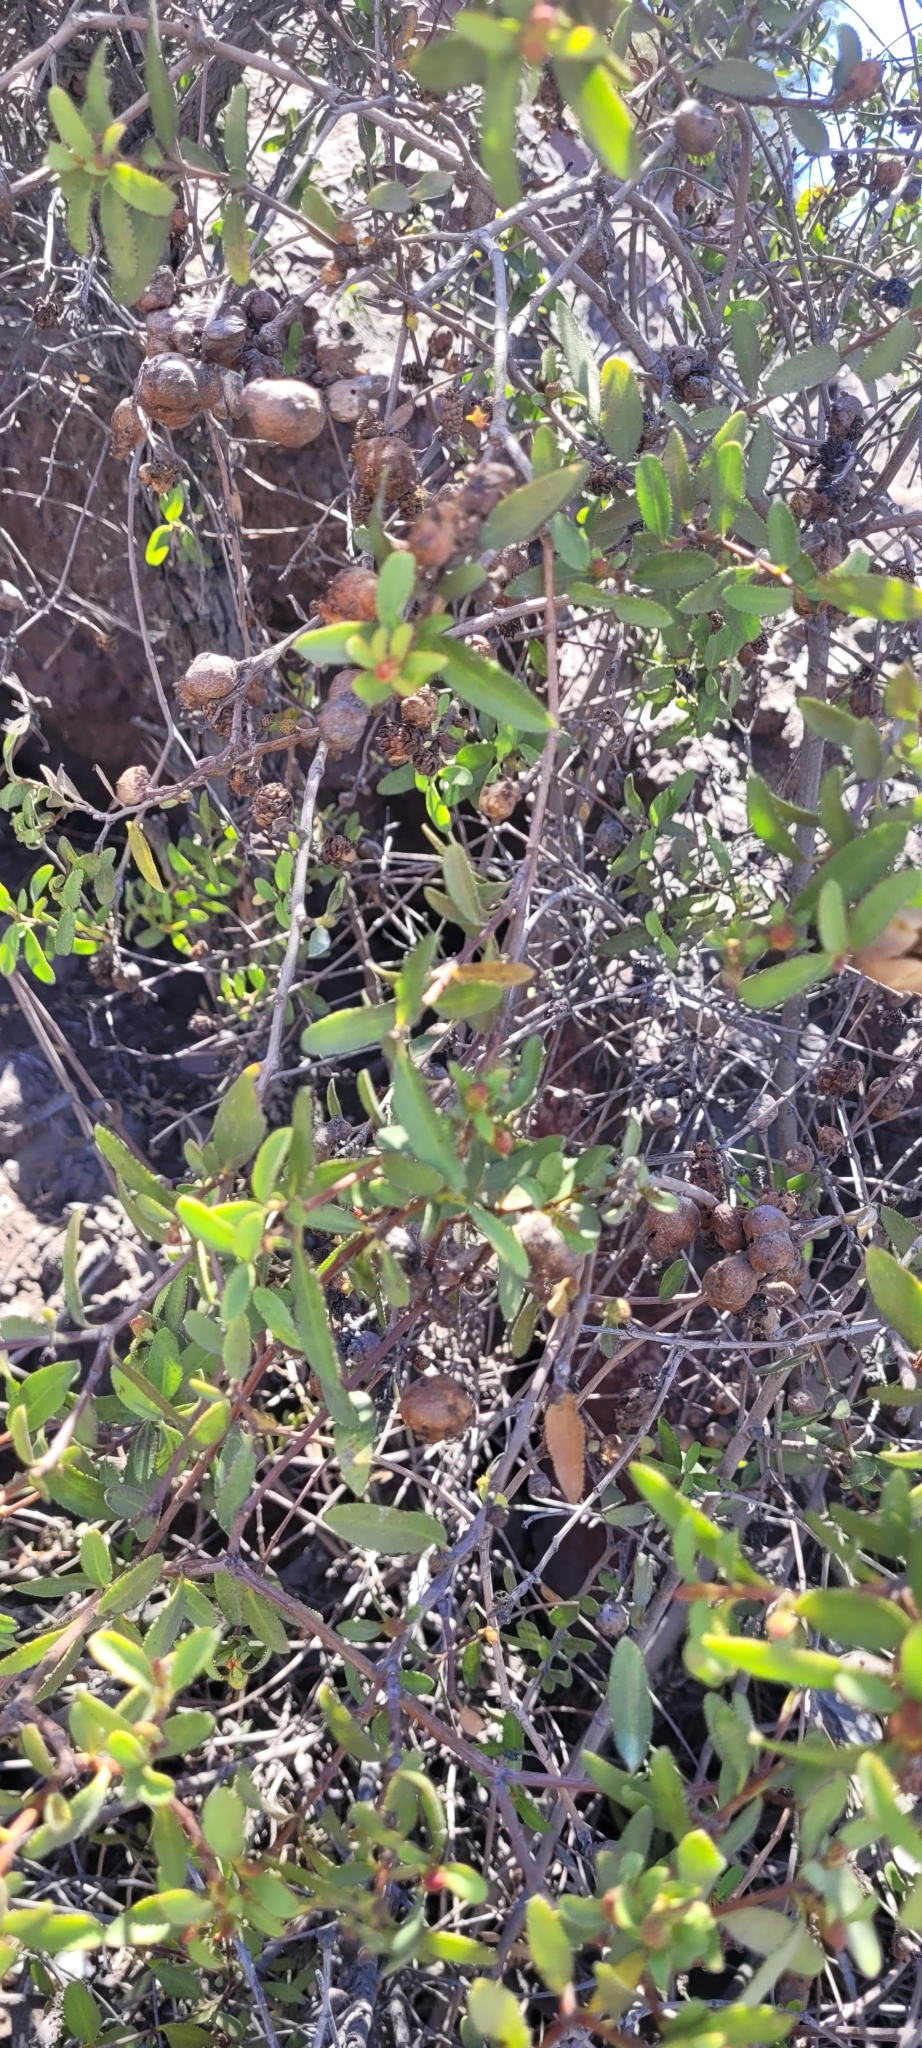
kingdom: Plantae
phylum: Tracheophyta
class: Magnoliopsida
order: Malpighiales
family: Euphorbiaceae
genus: Colliguaja
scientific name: Colliguaja odorifera
